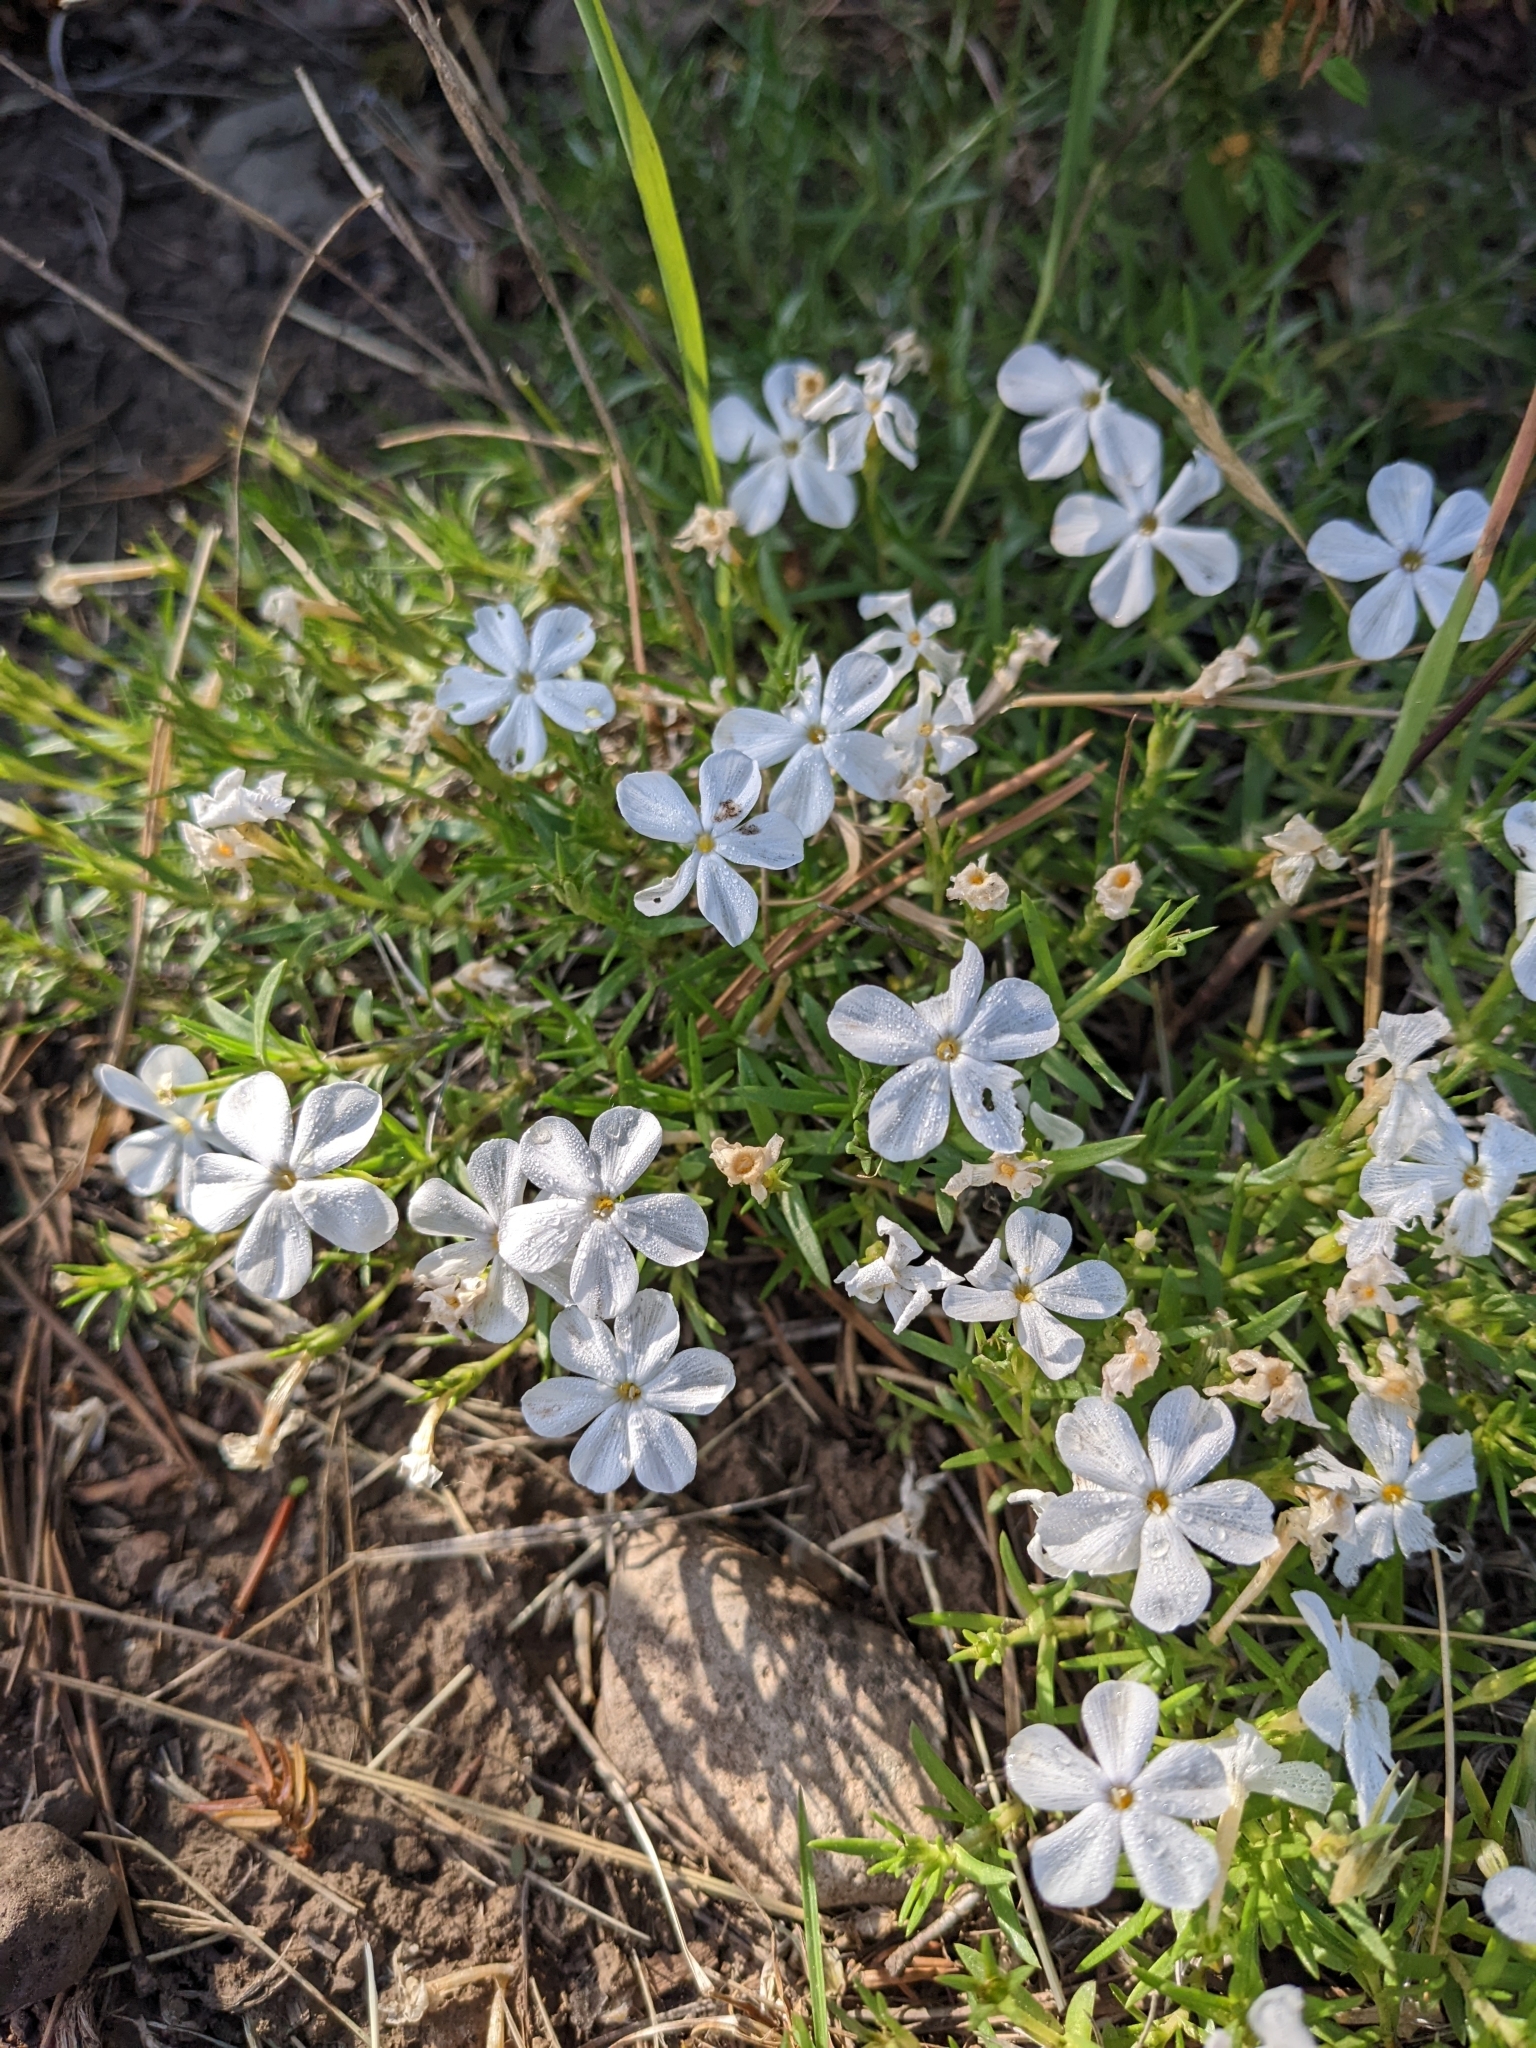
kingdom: Plantae
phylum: Tracheophyta
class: Magnoliopsida
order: Ericales
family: Polemoniaceae
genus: Phlox
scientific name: Phlox multiflora
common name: Rocky mountain phlox
